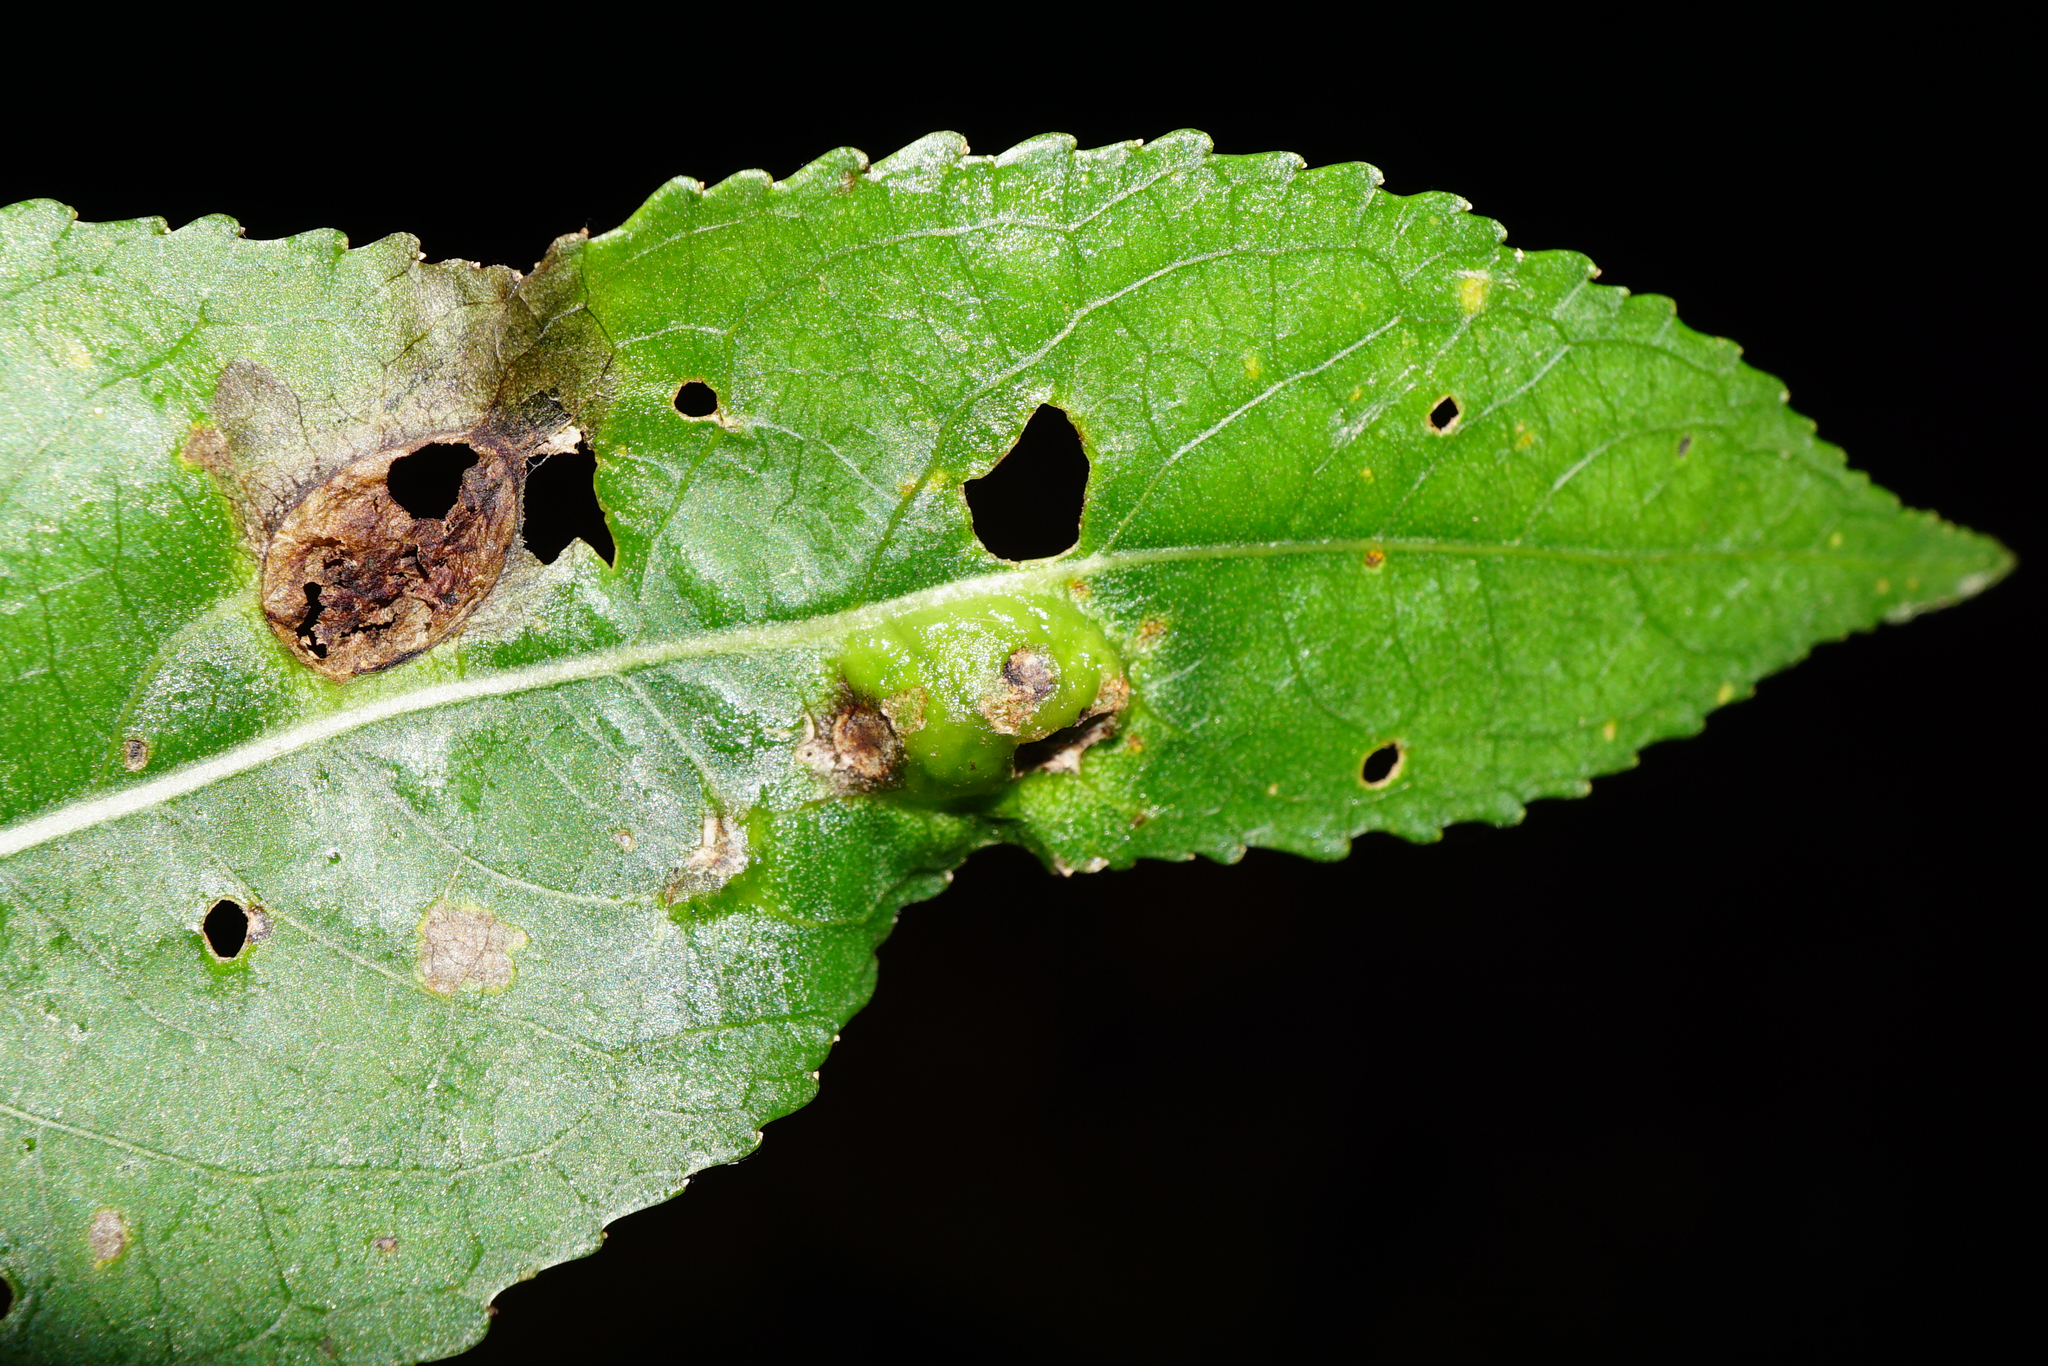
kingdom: Animalia
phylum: Arthropoda
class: Insecta
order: Hymenoptera
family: Tenthredinidae
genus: Pontania
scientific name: Pontania proxima
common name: Common sawfly
